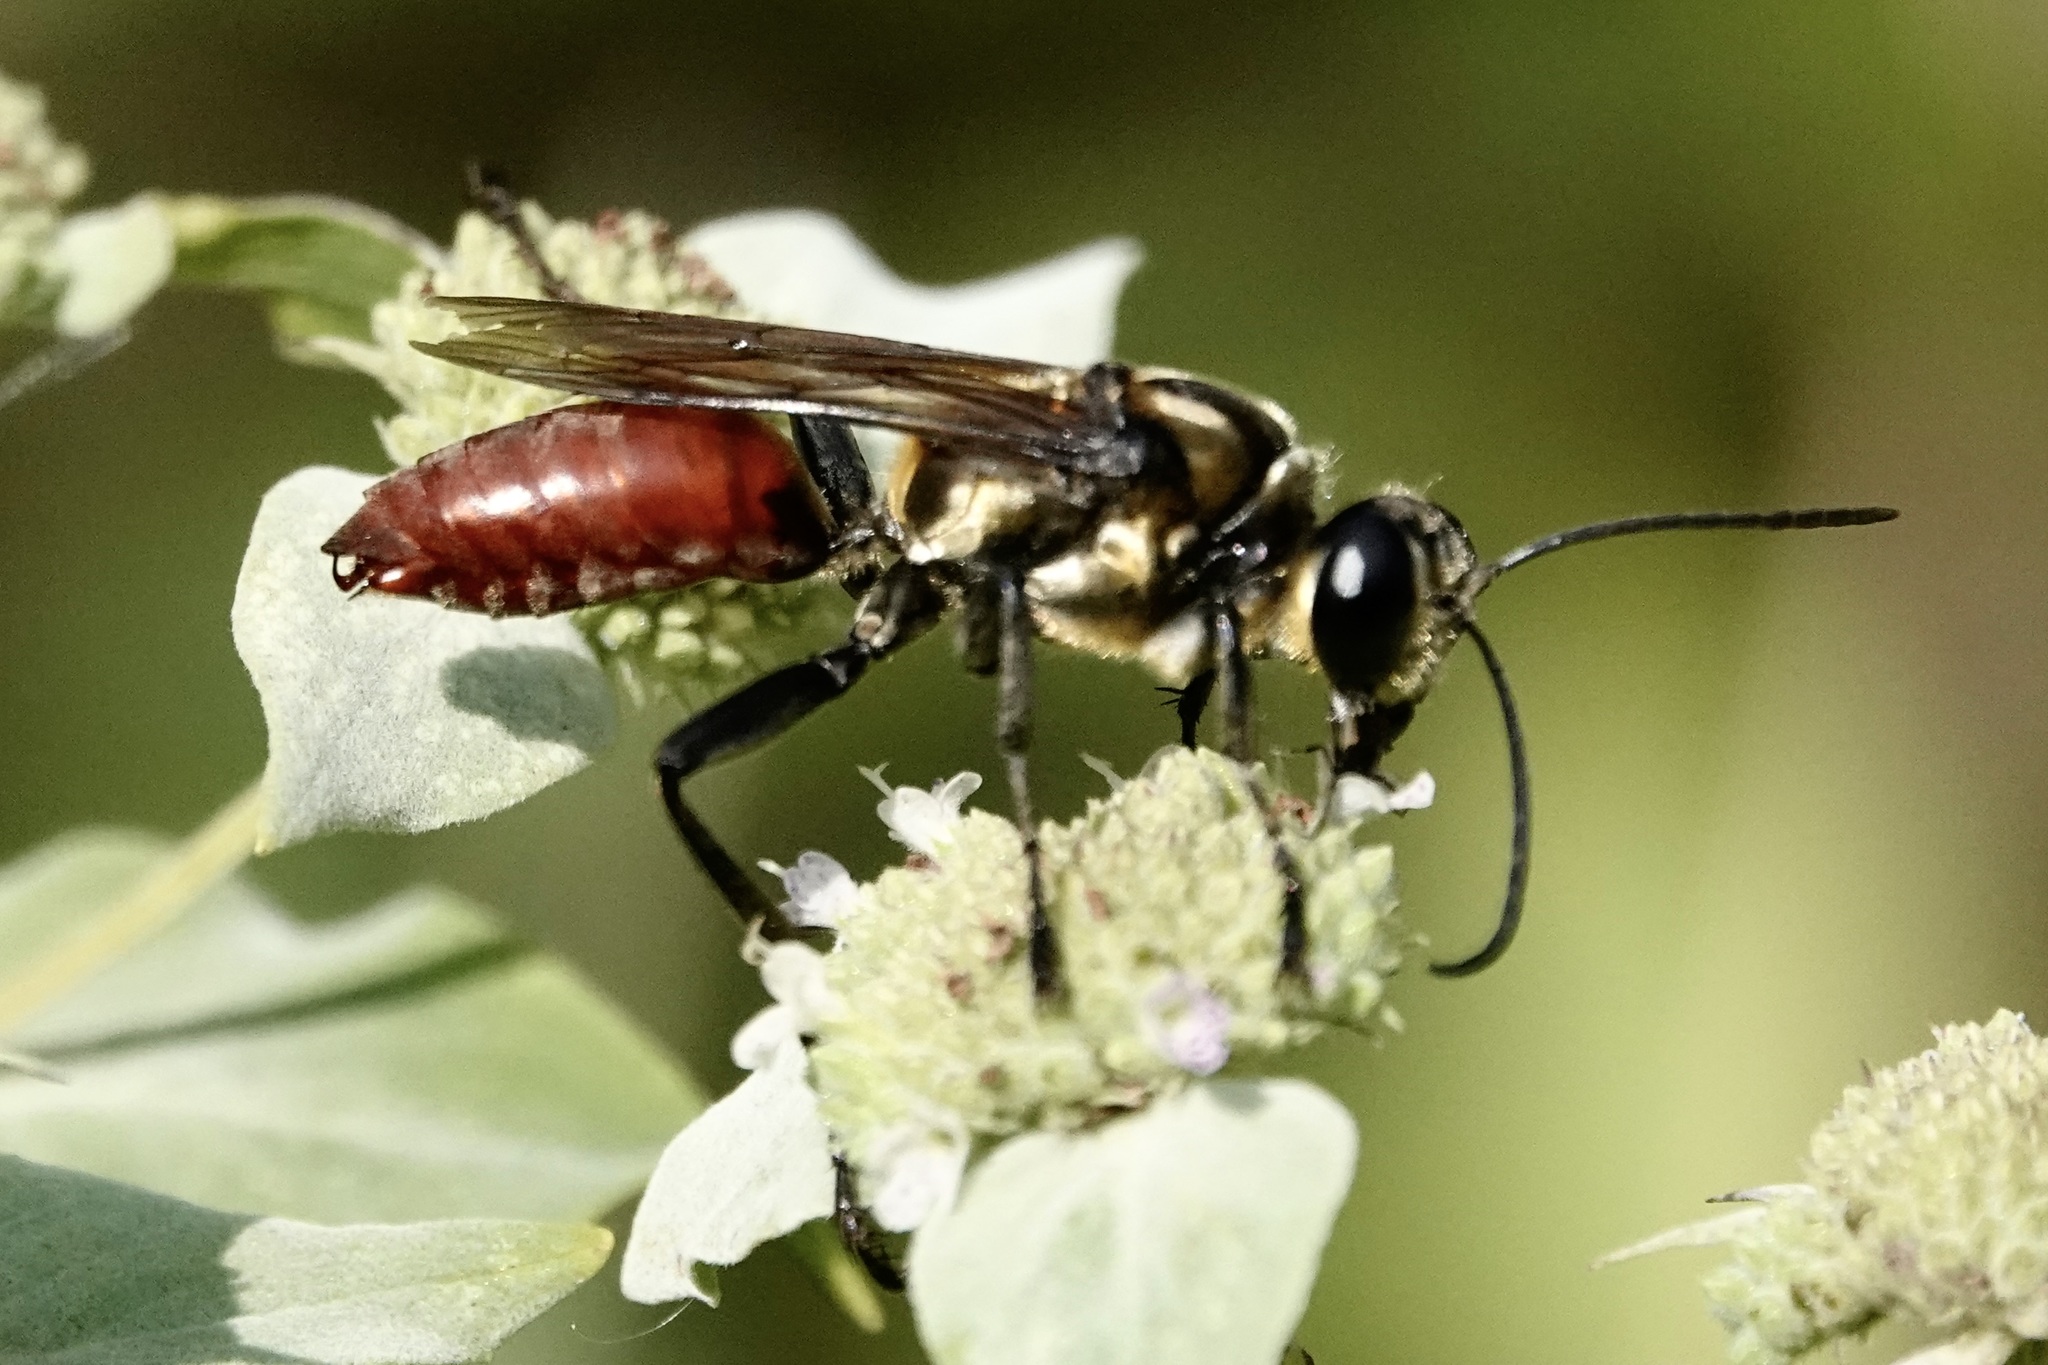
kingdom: Animalia
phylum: Arthropoda
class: Insecta
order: Hymenoptera
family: Sphecidae
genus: Sphex
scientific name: Sphex habenus
